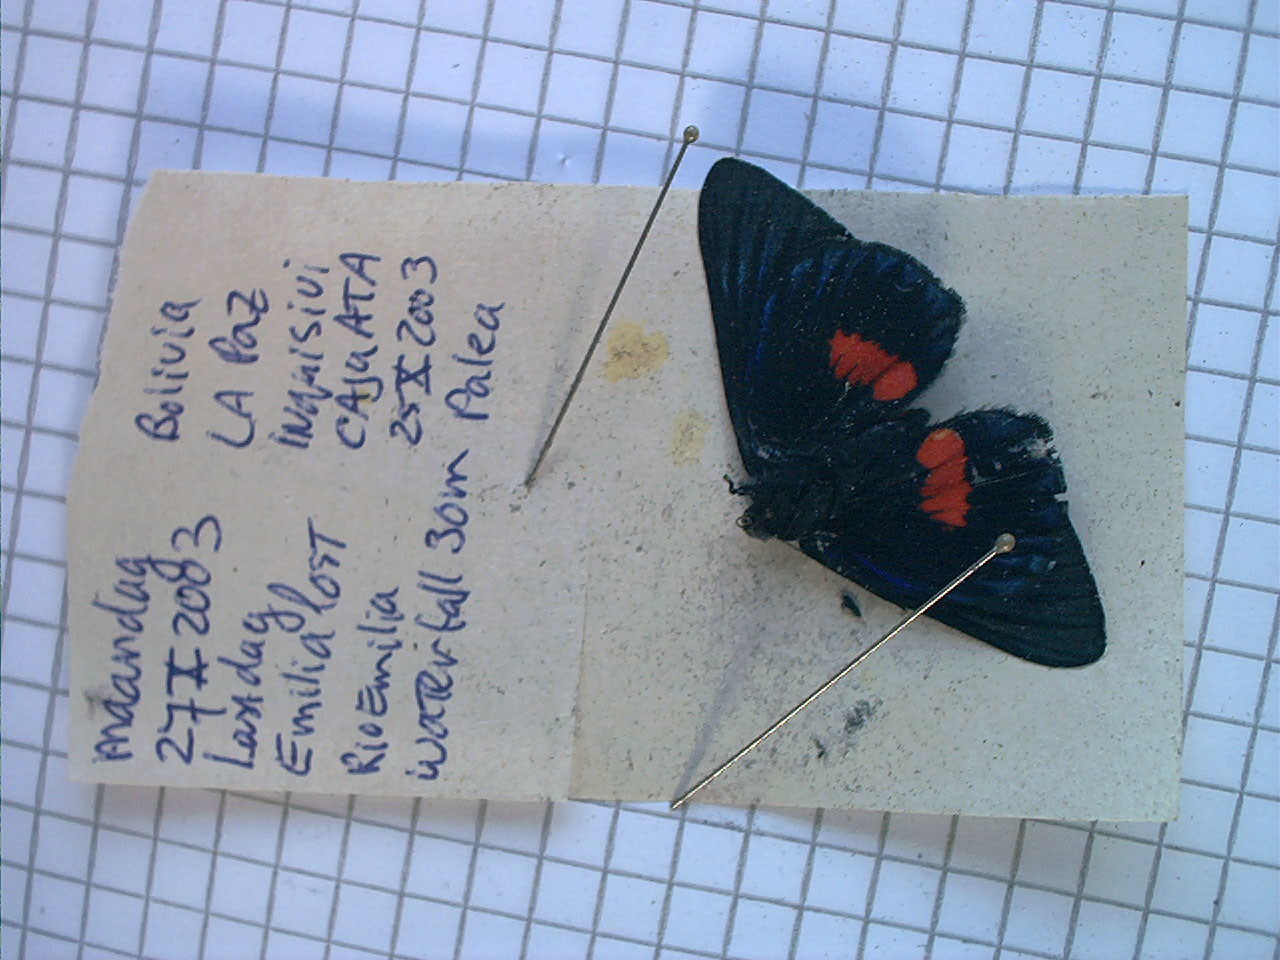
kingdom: Animalia
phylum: Arthropoda
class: Insecta
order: Lepidoptera
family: Lycaenidae
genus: Necyria
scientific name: Necyria bellona
